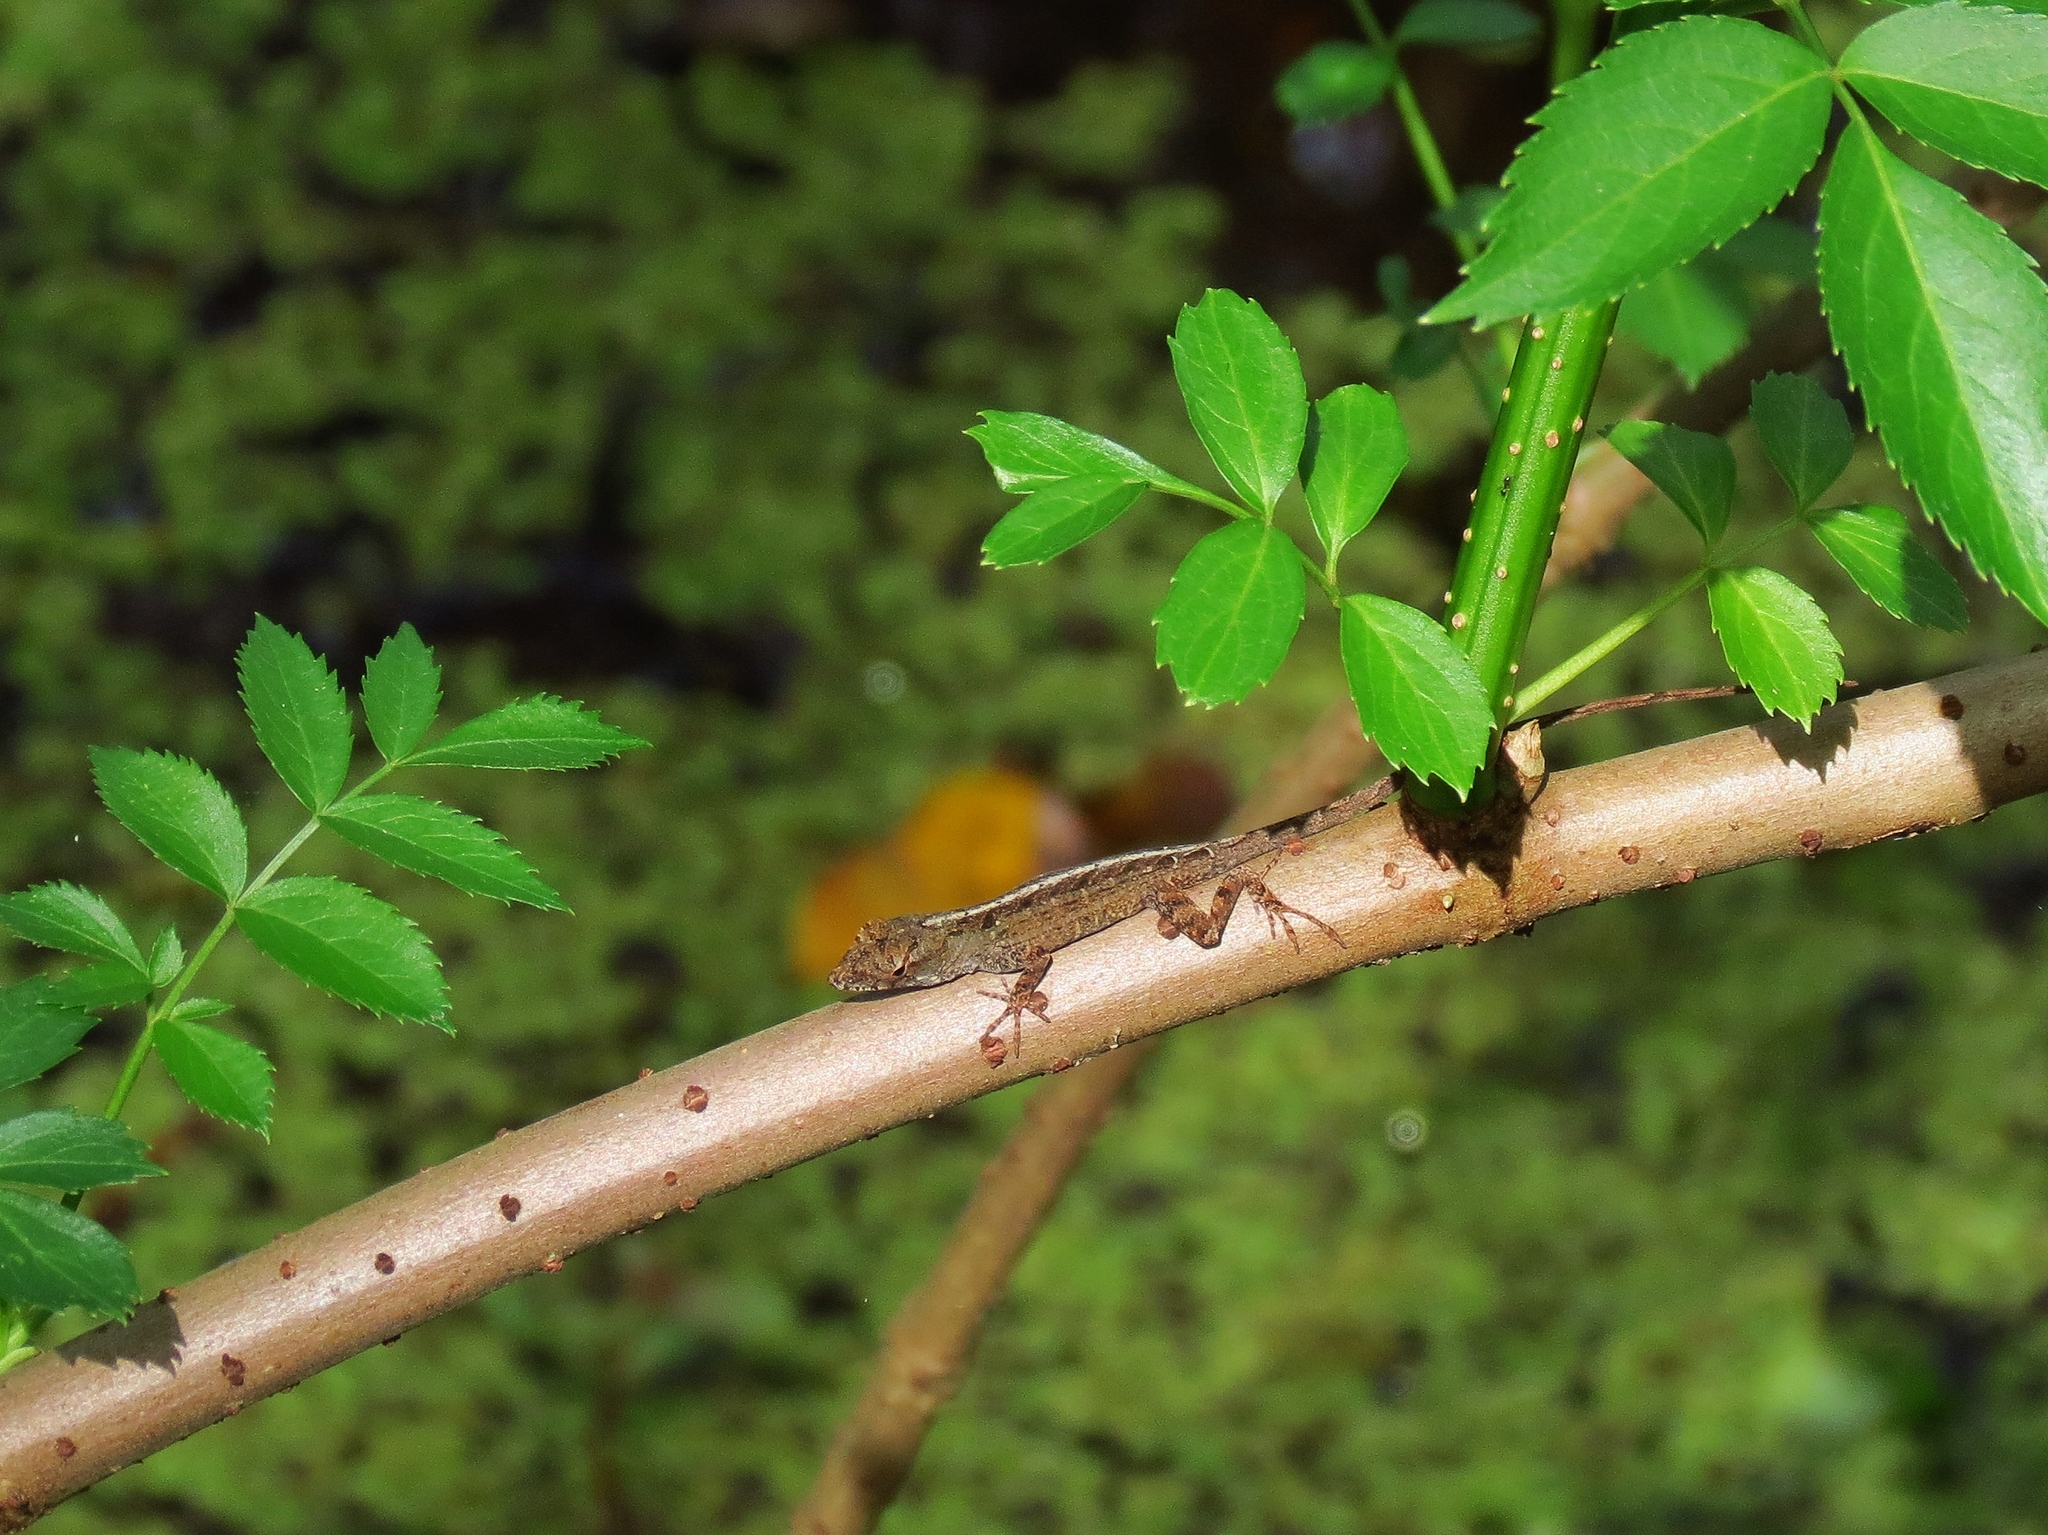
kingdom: Animalia
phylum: Chordata
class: Squamata
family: Dactyloidae
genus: Anolis
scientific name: Anolis sagrei
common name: Brown anole
